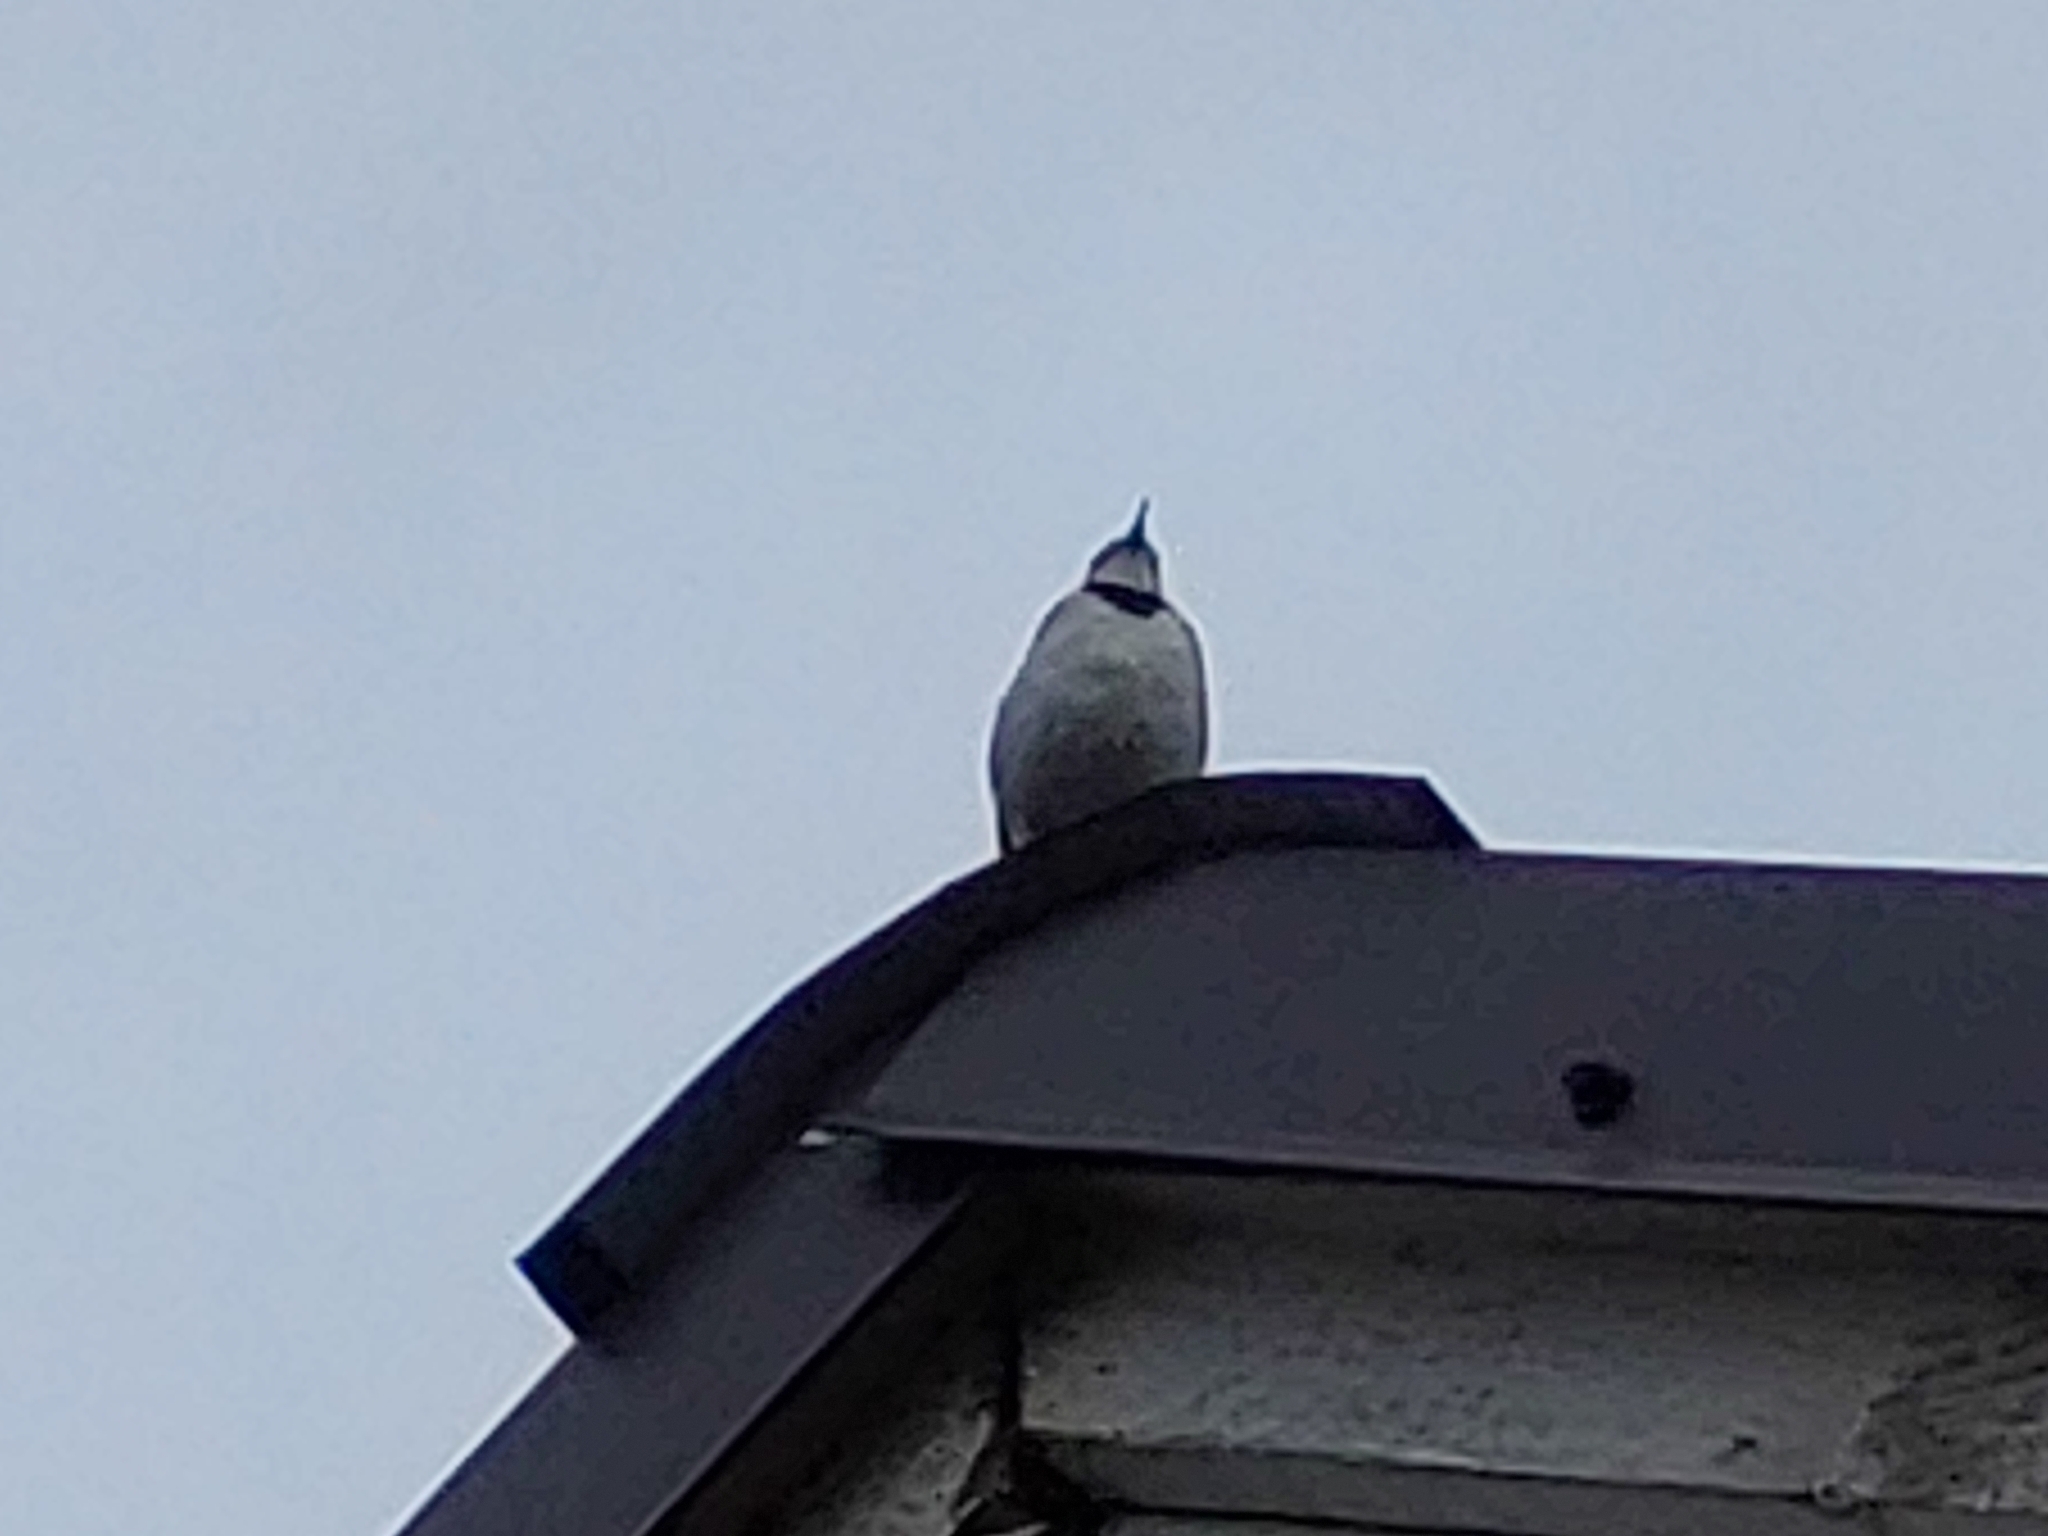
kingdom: Animalia
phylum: Chordata
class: Aves
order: Passeriformes
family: Motacillidae
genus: Motacilla
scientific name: Motacilla alba
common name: White wagtail
